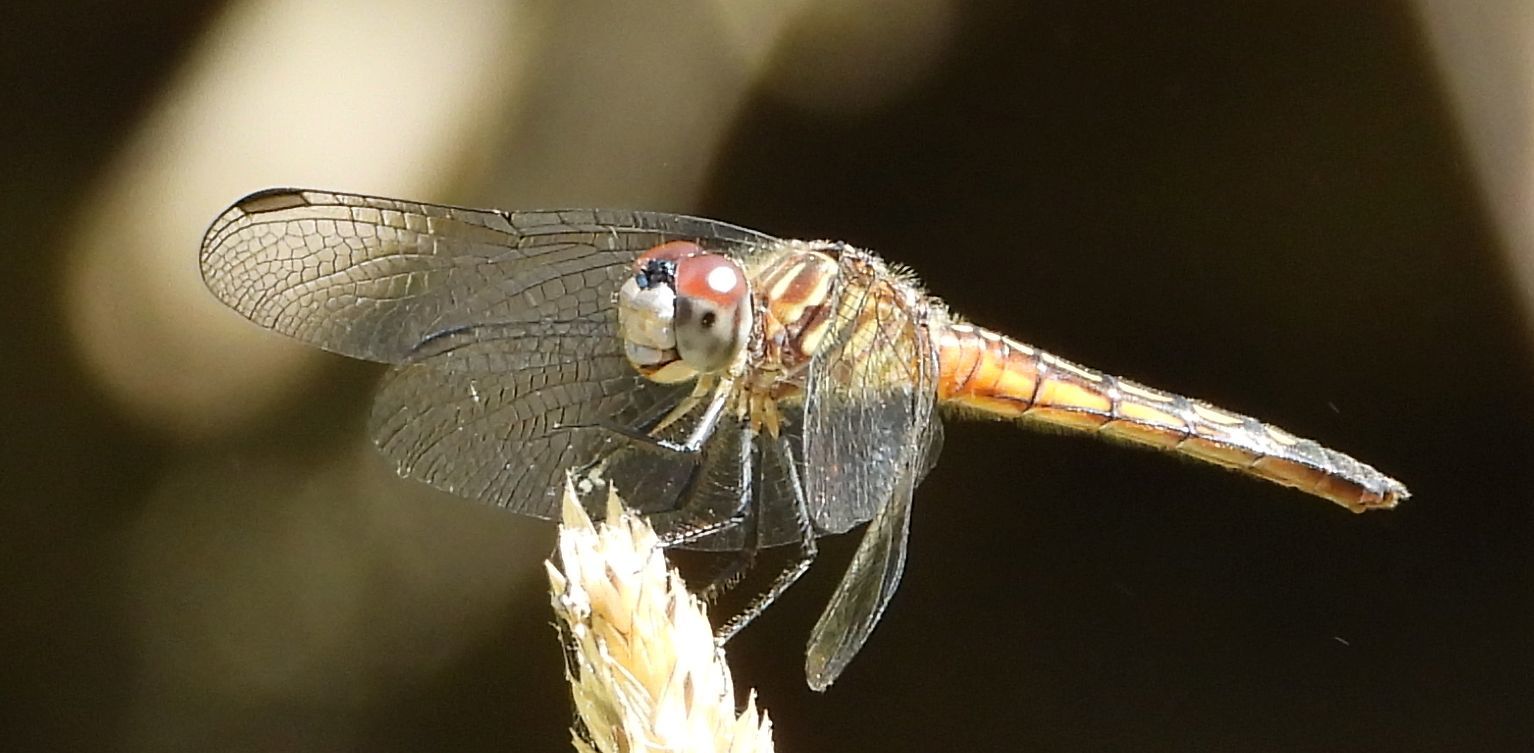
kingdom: Animalia
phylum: Arthropoda
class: Insecta
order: Odonata
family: Libellulidae
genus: Pachydiplax
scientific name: Pachydiplax longipennis
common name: Blue dasher
